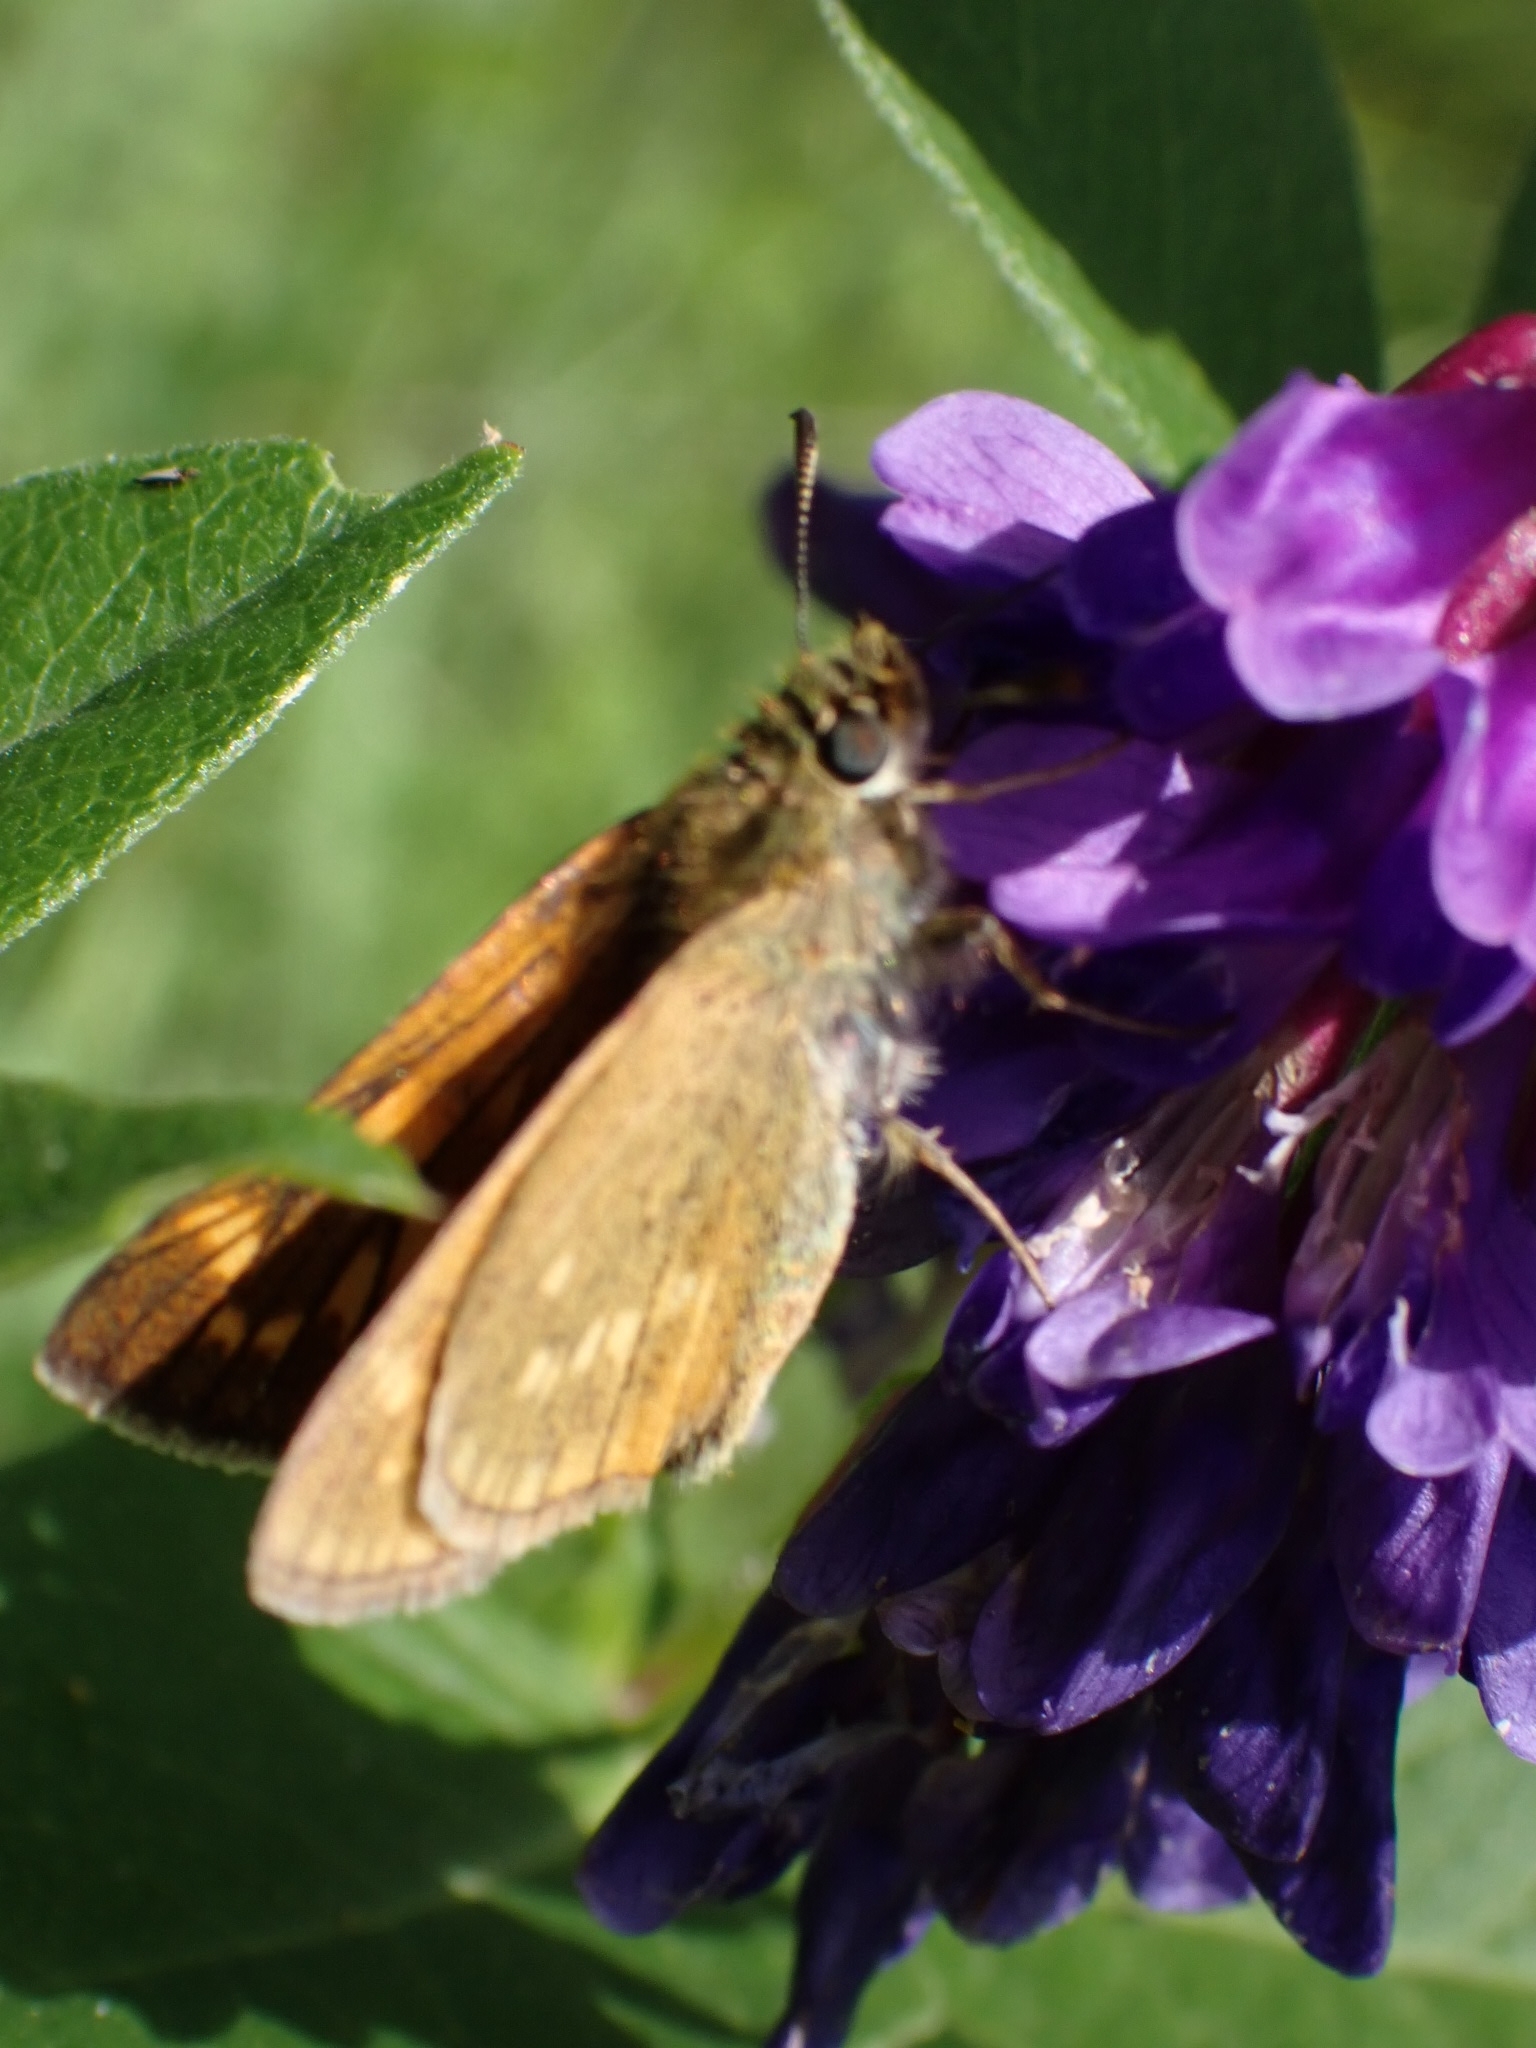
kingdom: Animalia
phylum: Arthropoda
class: Insecta
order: Lepidoptera
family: Hesperiidae
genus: Ochlodes
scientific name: Ochlodes venata
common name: Large skipper
